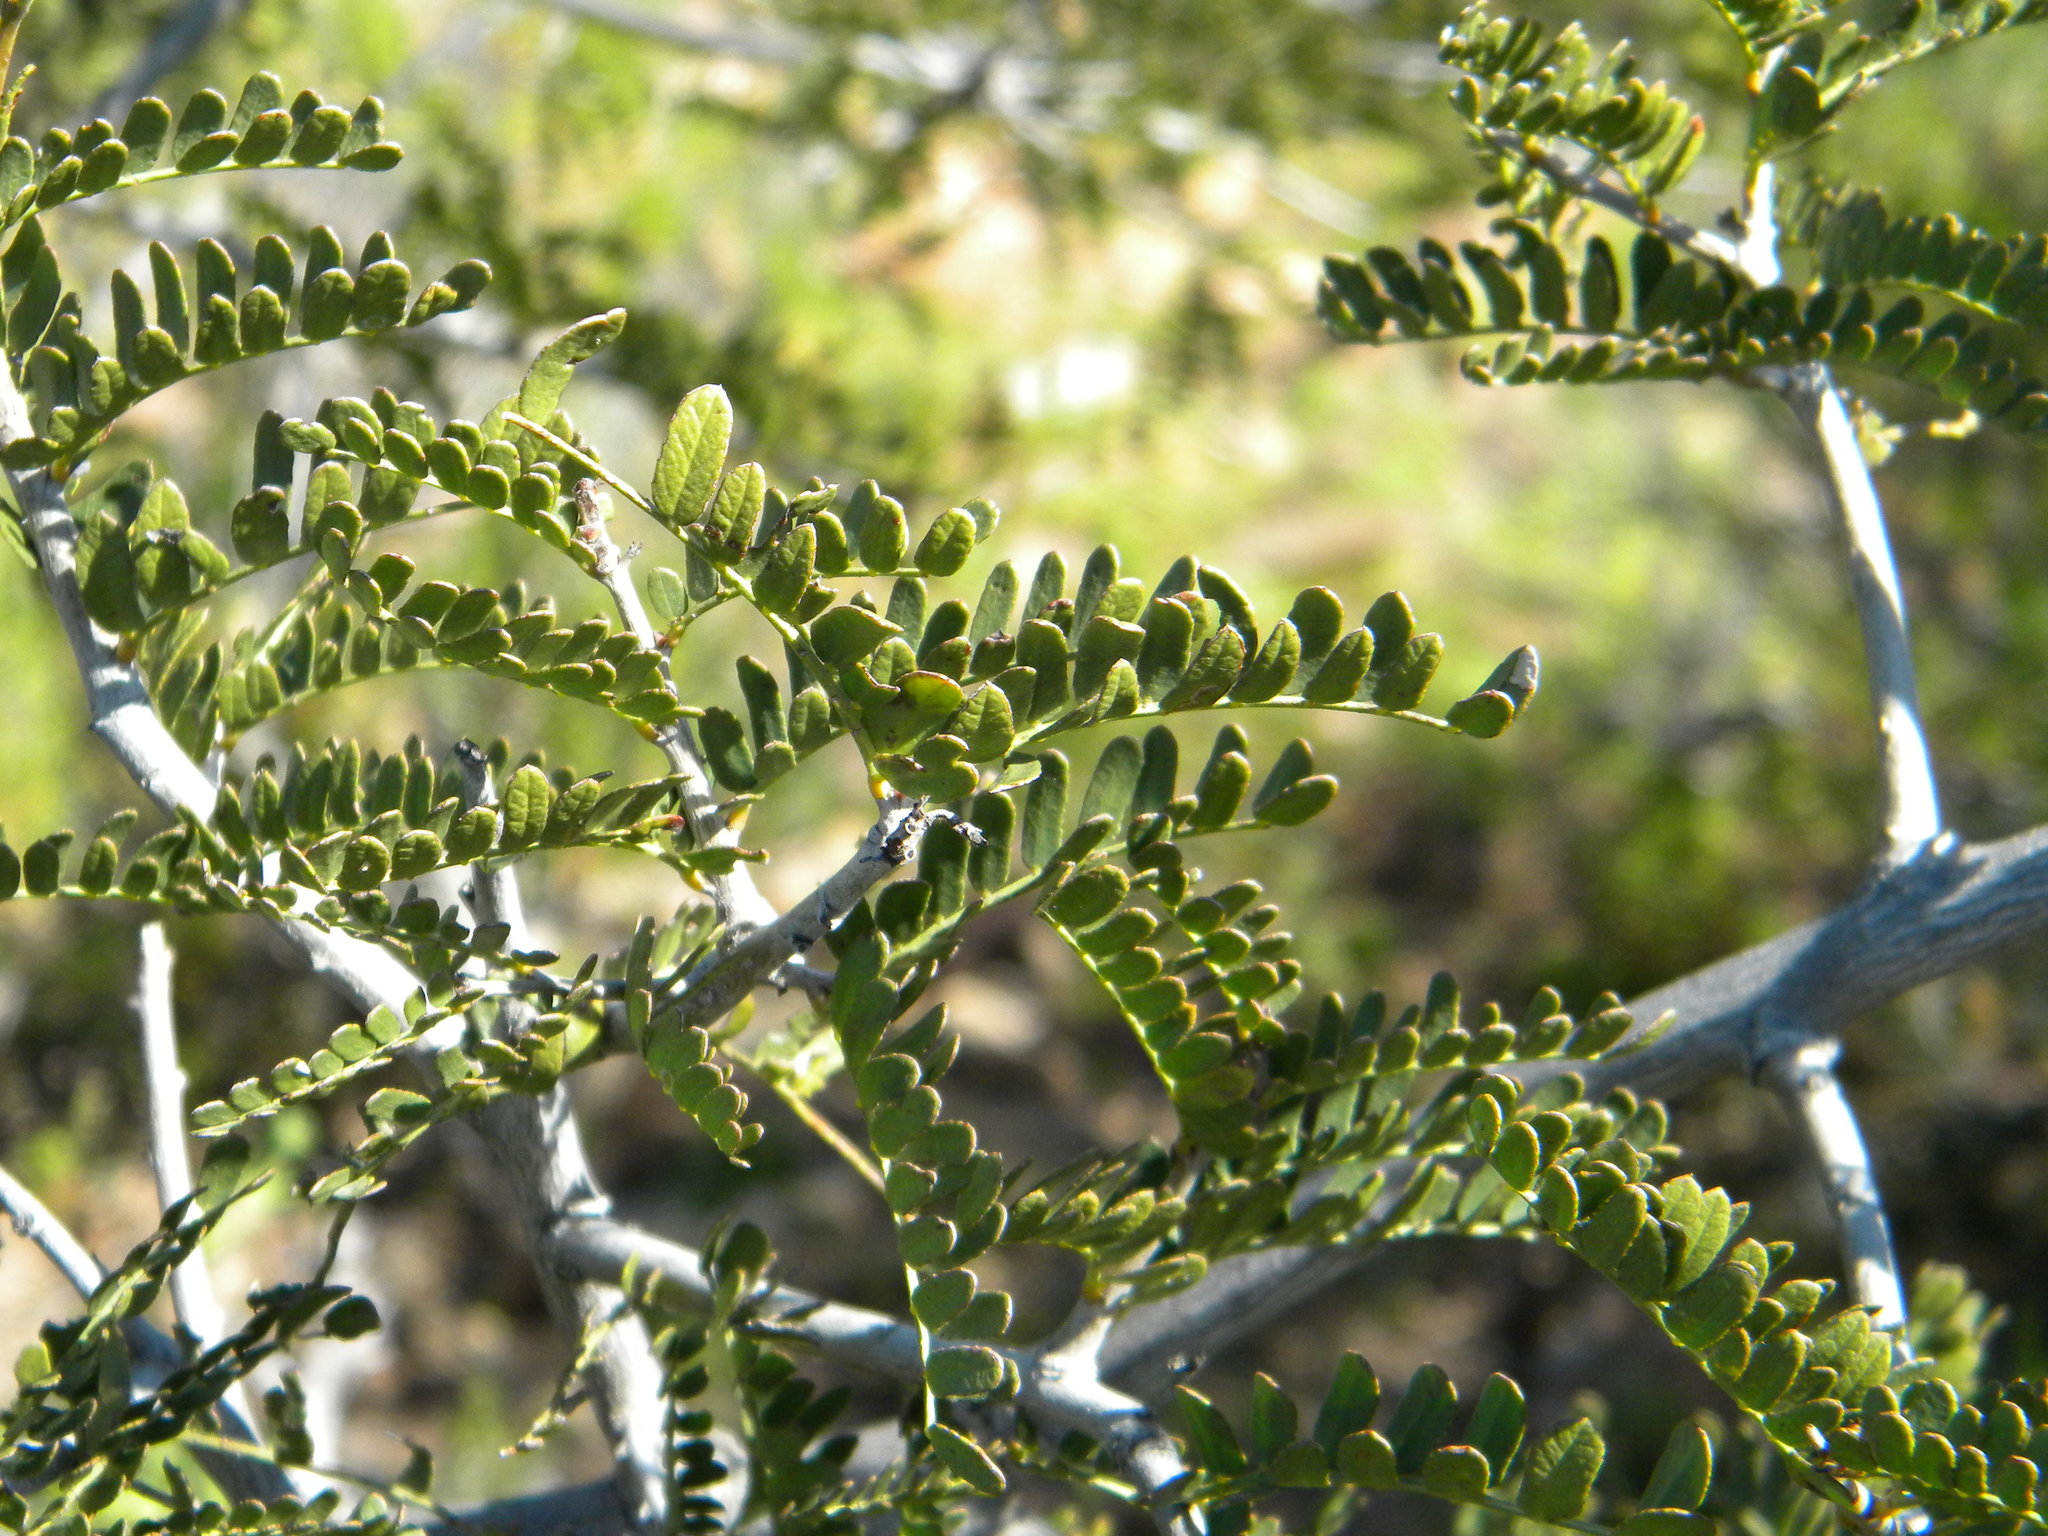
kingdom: Plantae
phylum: Tracheophyta
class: Magnoliopsida
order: Fabales
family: Fabaceae
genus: Schotia
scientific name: Schotia afra
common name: Hottentot's bean
